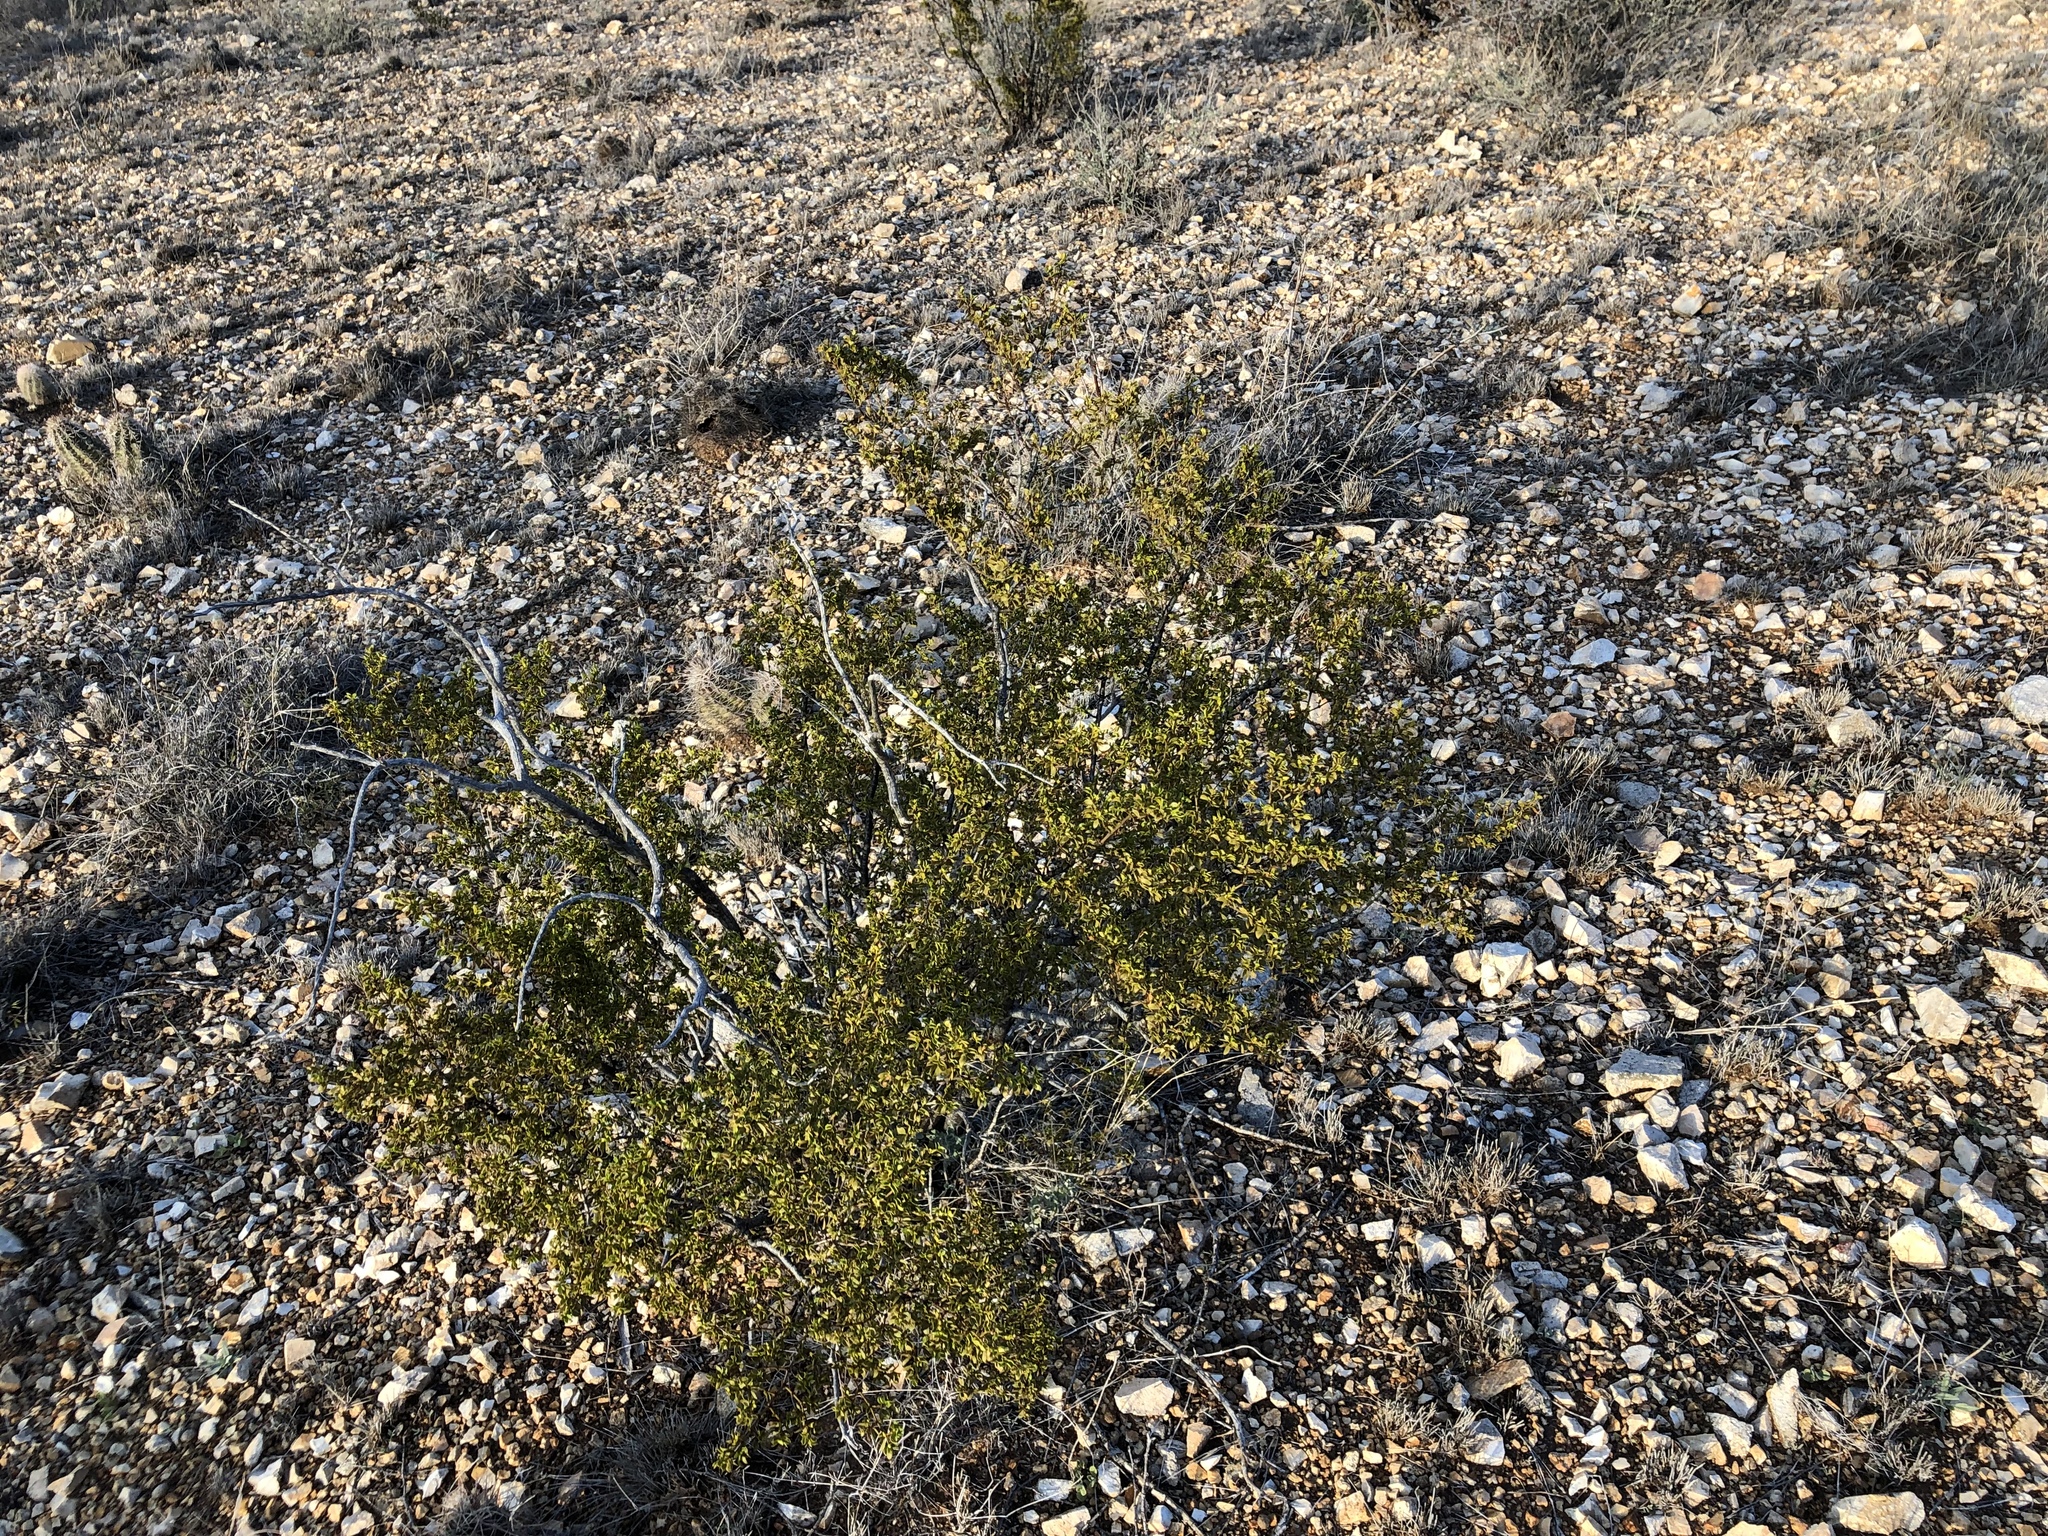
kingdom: Plantae
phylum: Tracheophyta
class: Magnoliopsida
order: Zygophyllales
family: Zygophyllaceae
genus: Larrea
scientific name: Larrea tridentata
